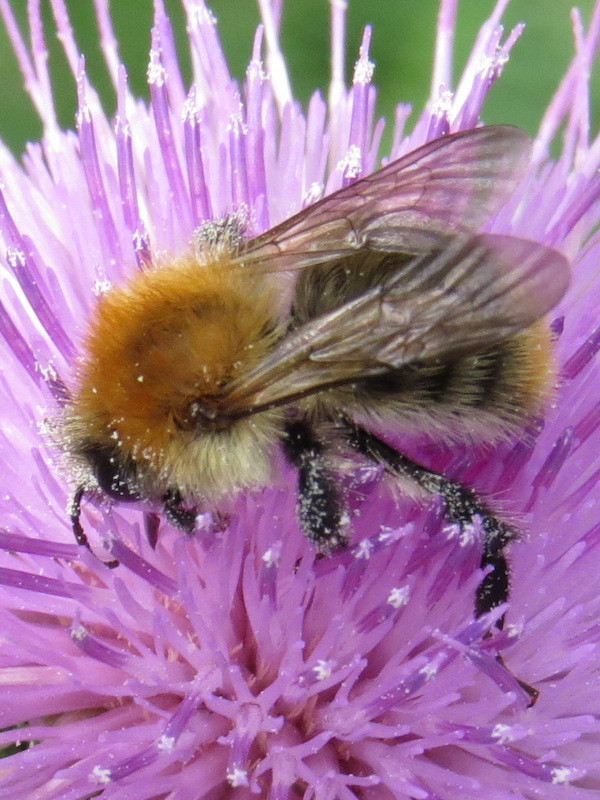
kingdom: Animalia
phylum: Arthropoda
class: Insecta
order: Hymenoptera
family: Apidae
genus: Bombus
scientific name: Bombus pascuorum
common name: Common carder bee
